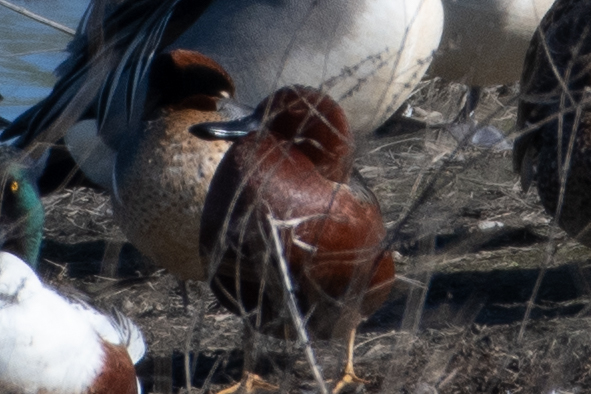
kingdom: Animalia
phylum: Chordata
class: Aves
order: Anseriformes
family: Anatidae
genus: Spatula
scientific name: Spatula cyanoptera
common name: Cinnamon teal
